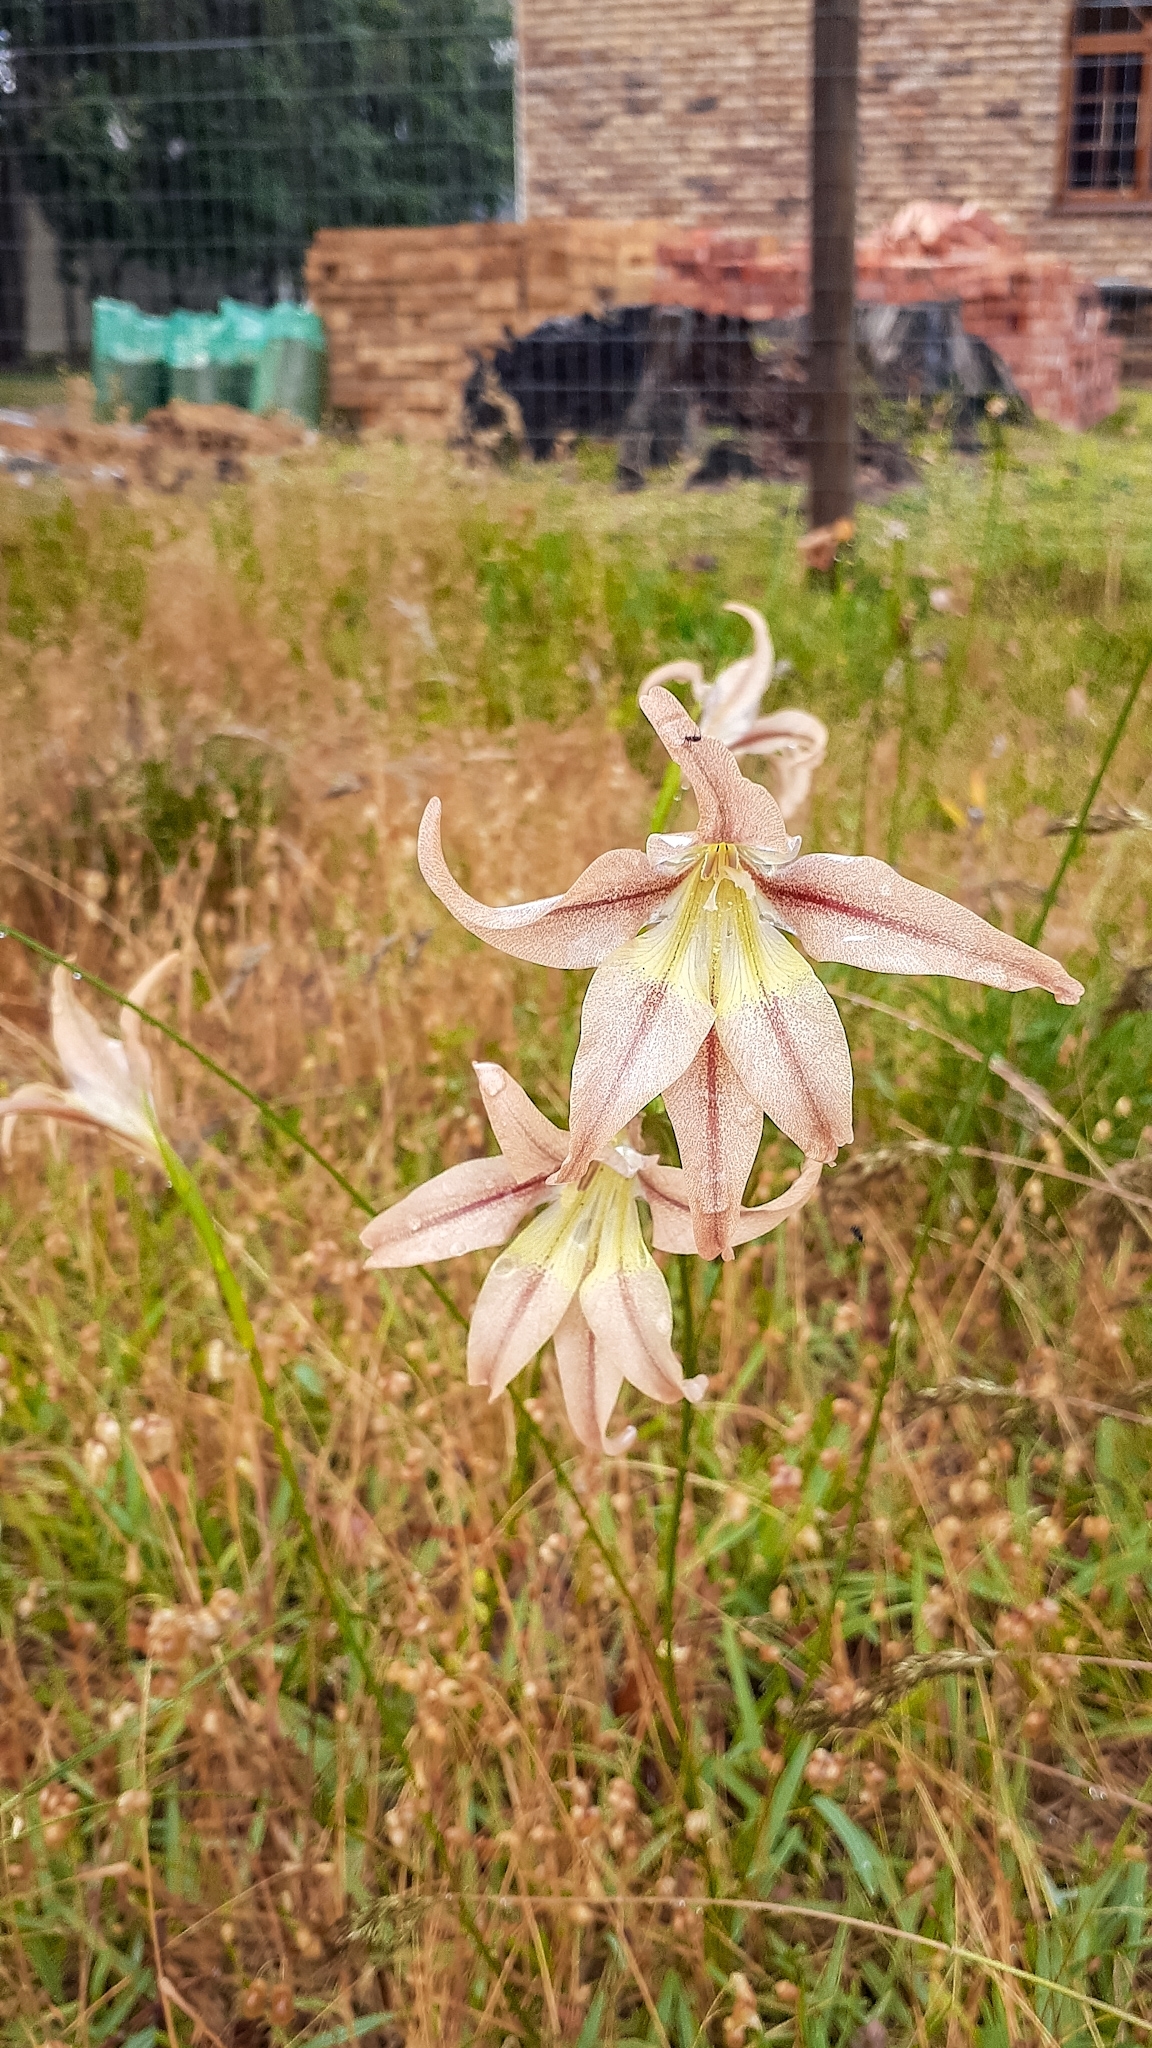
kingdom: Plantae
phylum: Tracheophyta
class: Liliopsida
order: Asparagales
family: Iridaceae
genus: Gladiolus
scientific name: Gladiolus liliaceus
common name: Large brown afrikaner
